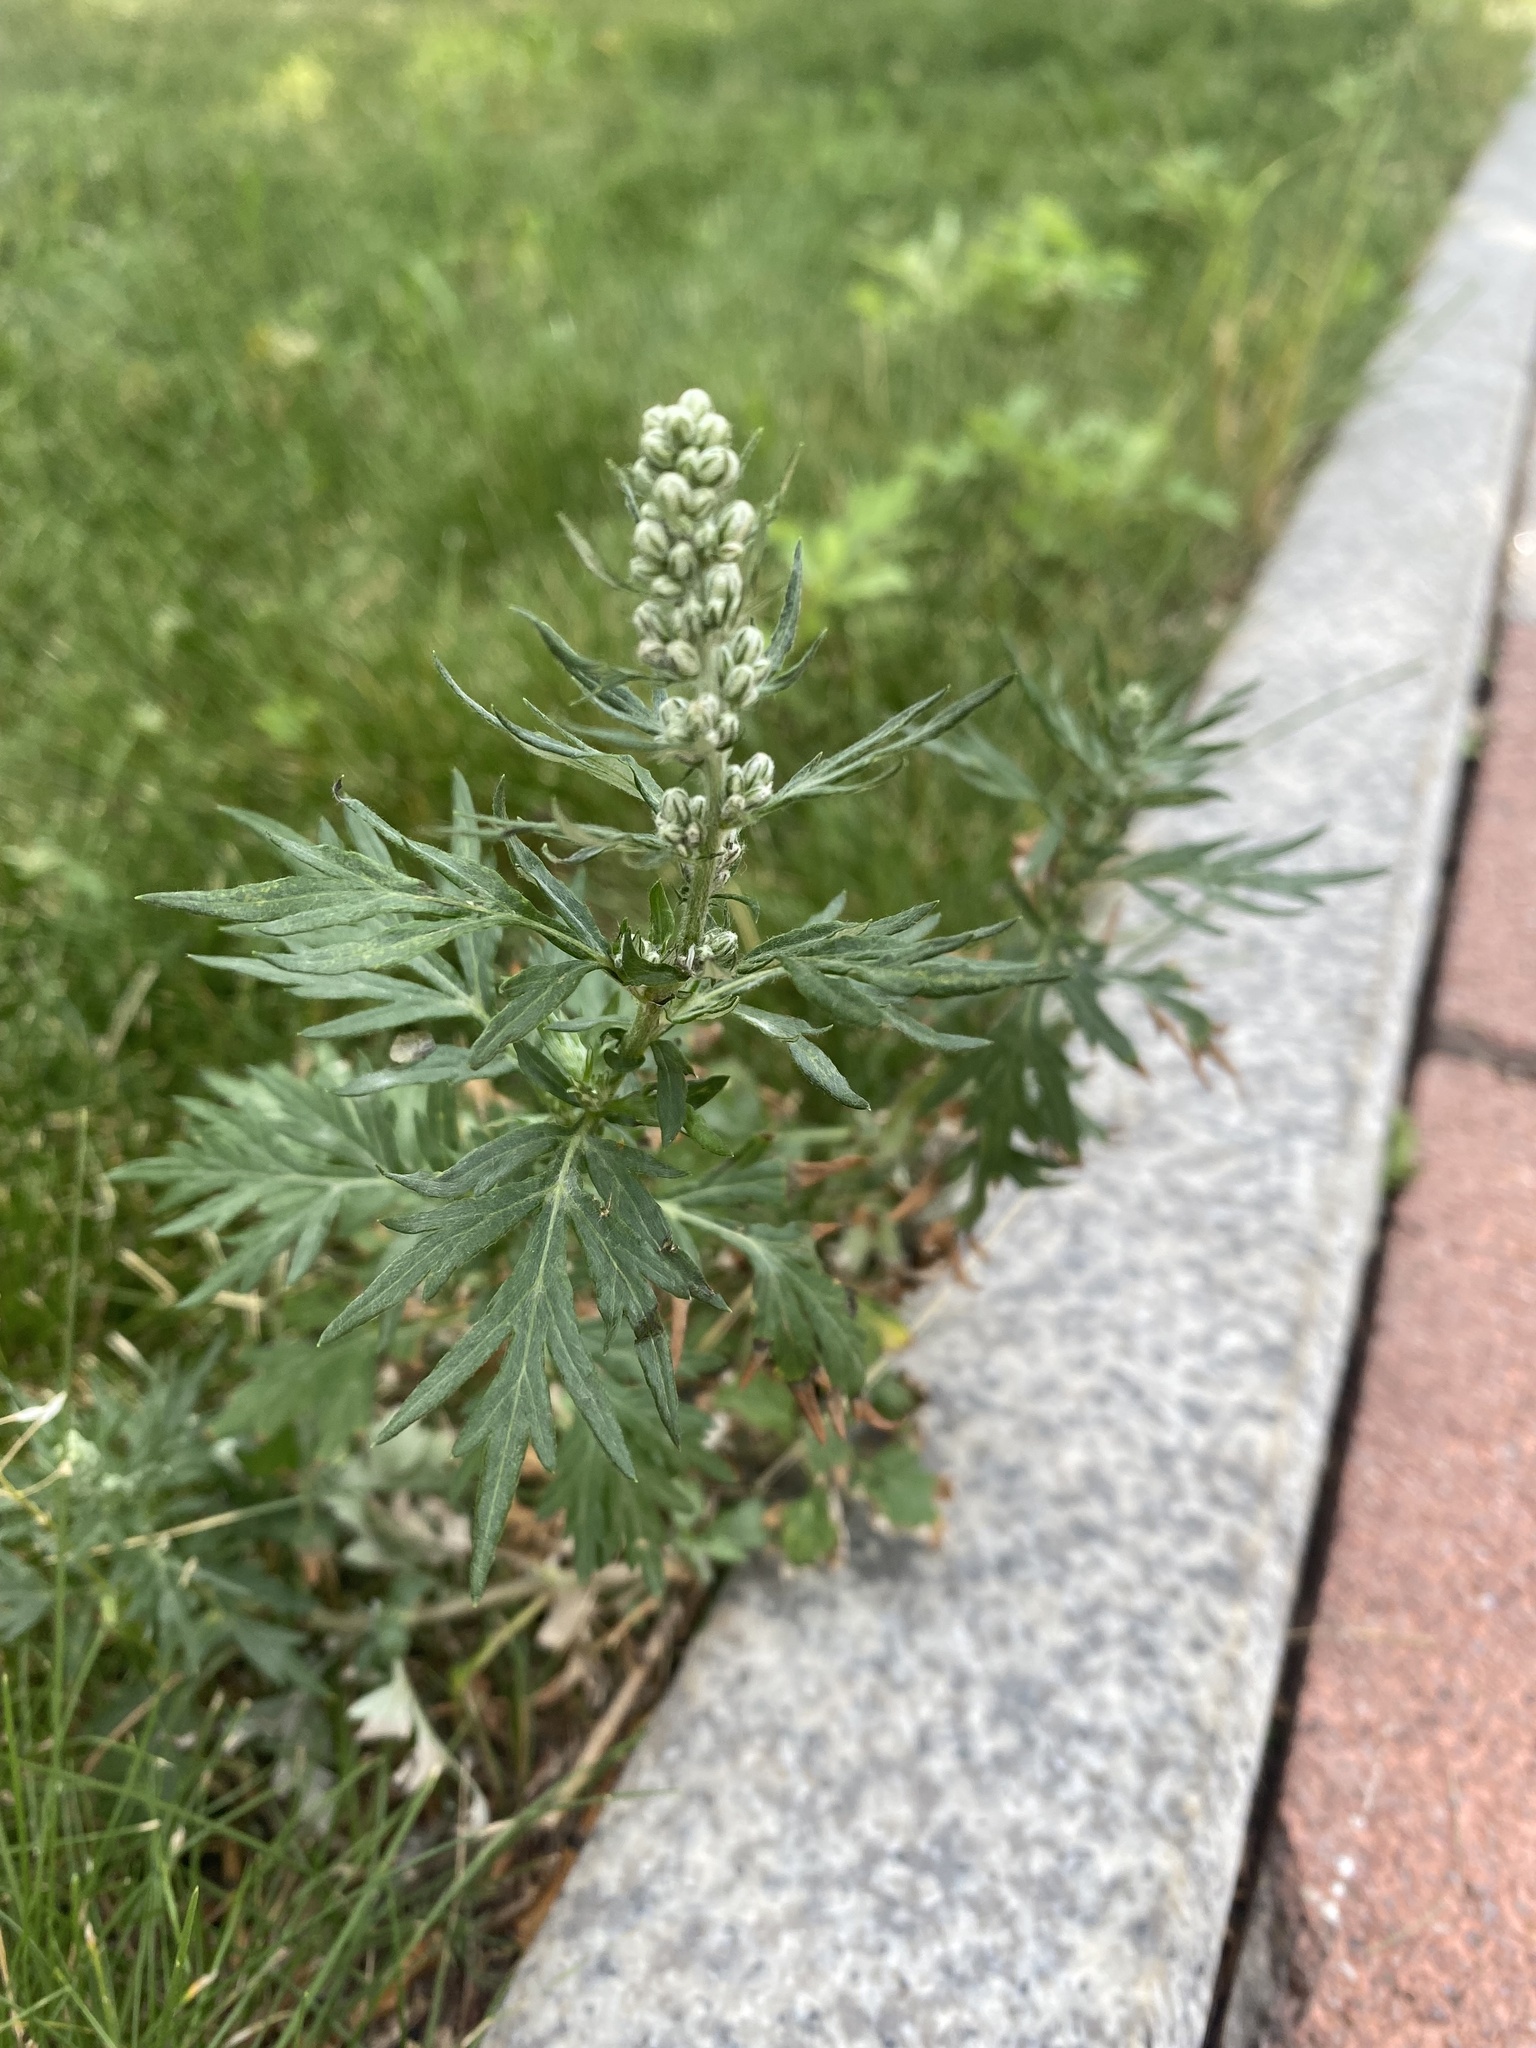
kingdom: Plantae
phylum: Tracheophyta
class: Magnoliopsida
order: Asterales
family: Asteraceae
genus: Artemisia
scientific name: Artemisia vulgaris
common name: Mugwort
